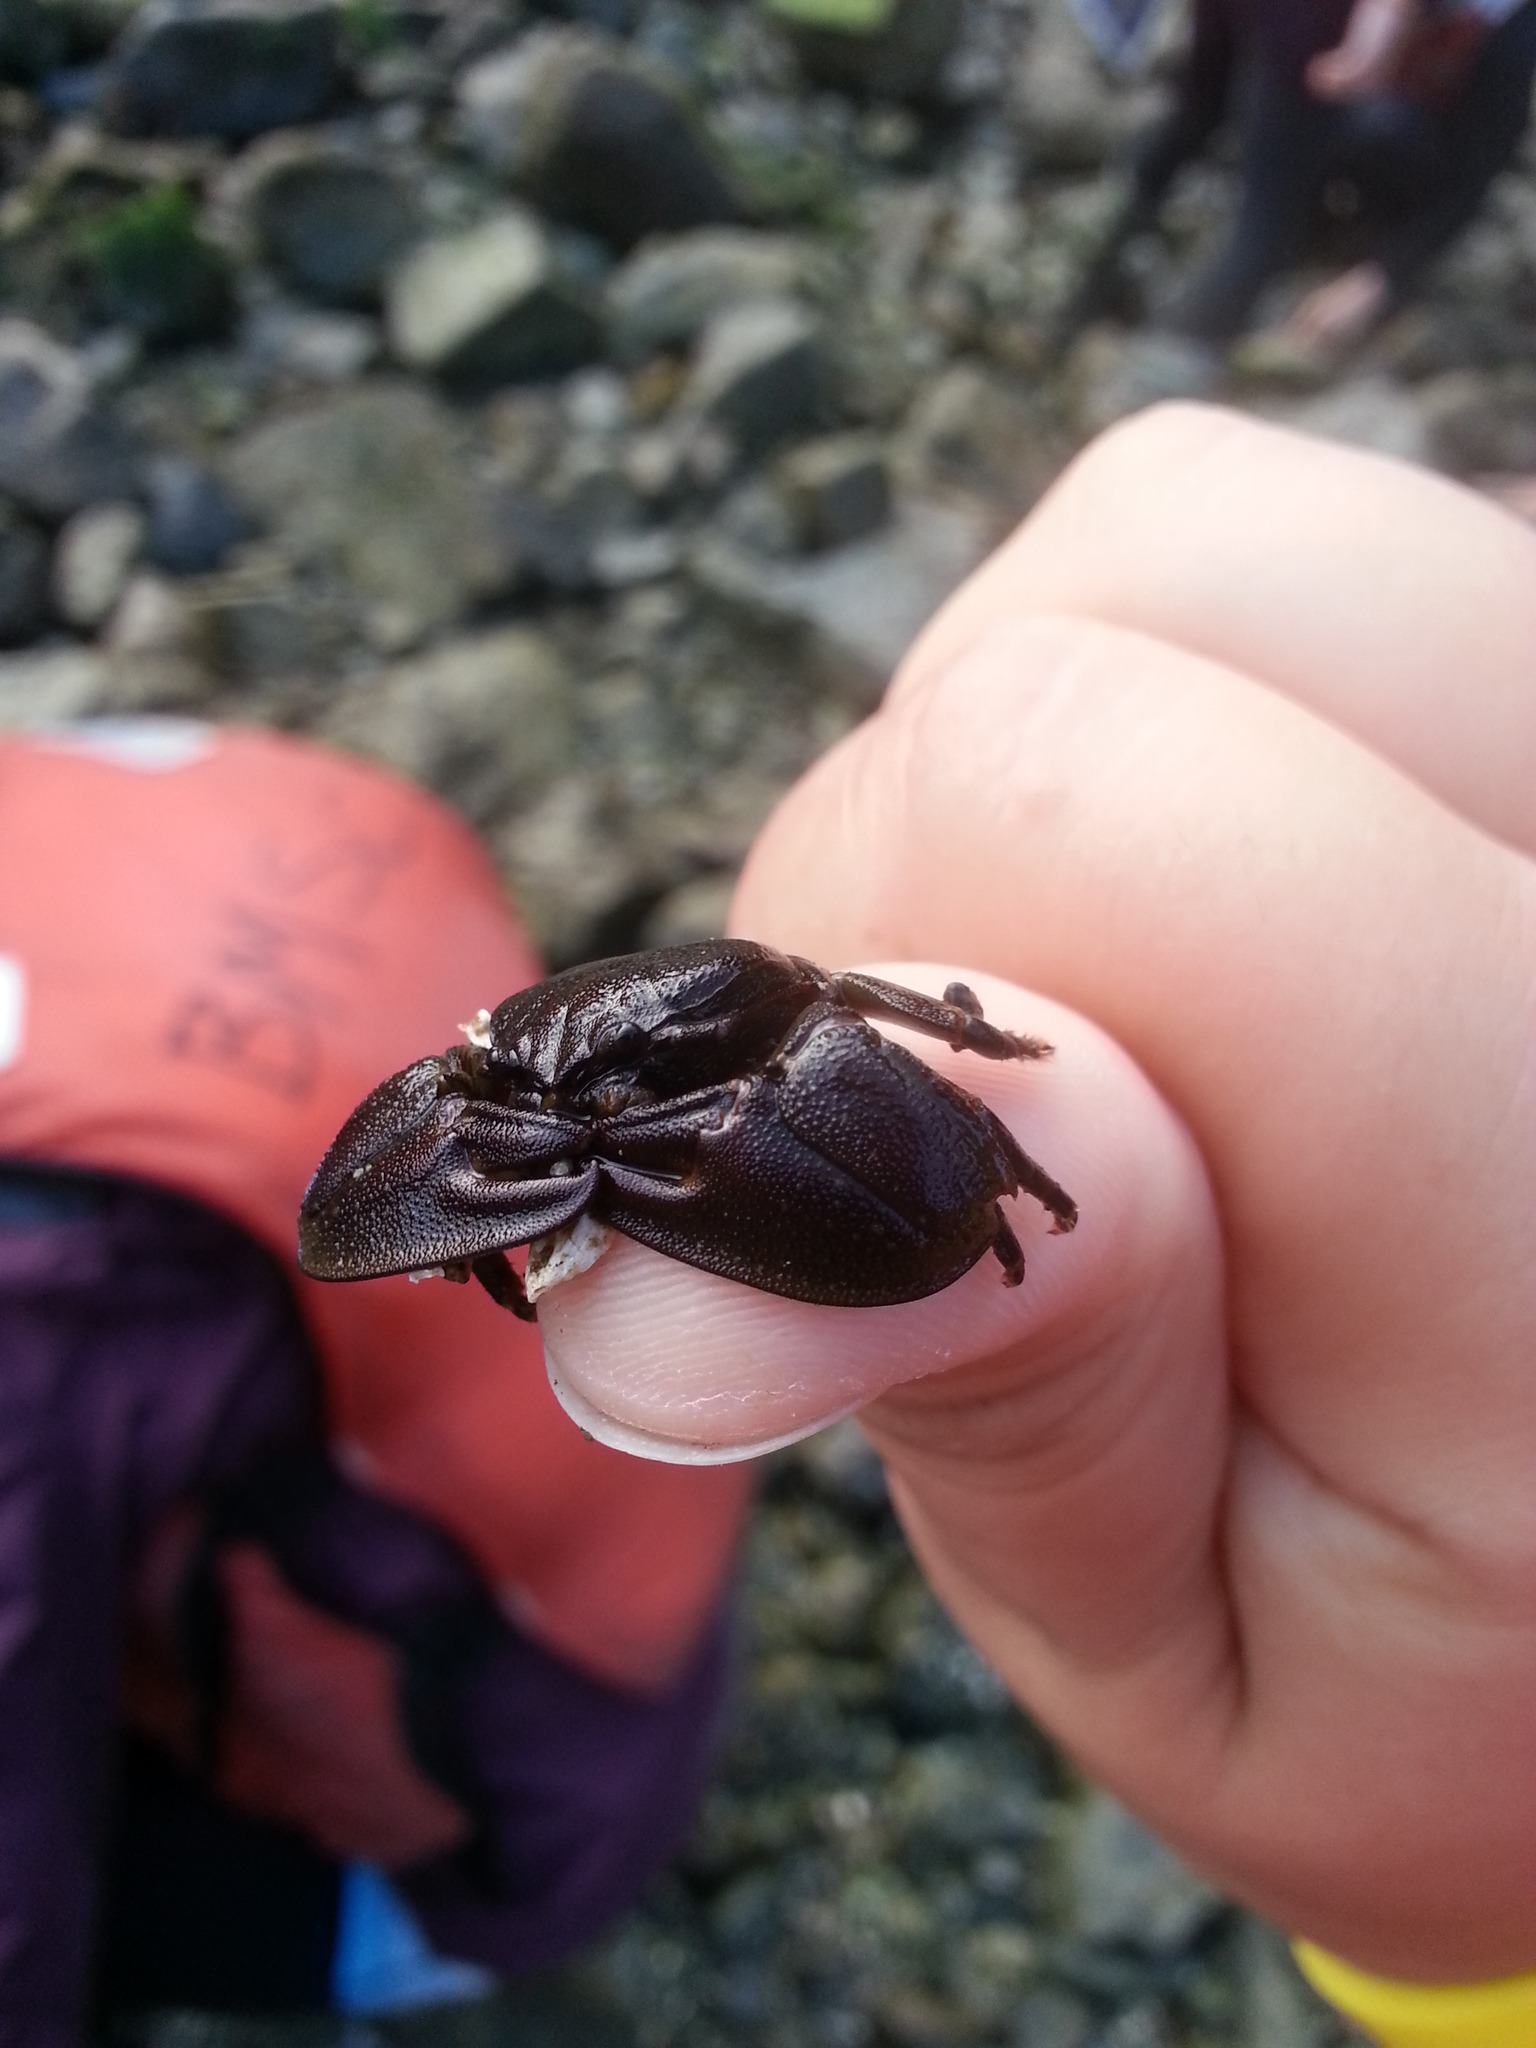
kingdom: Animalia
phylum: Arthropoda
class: Malacostraca
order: Decapoda
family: Porcellanidae
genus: Petrolisthes
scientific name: Petrolisthes eriomerus
